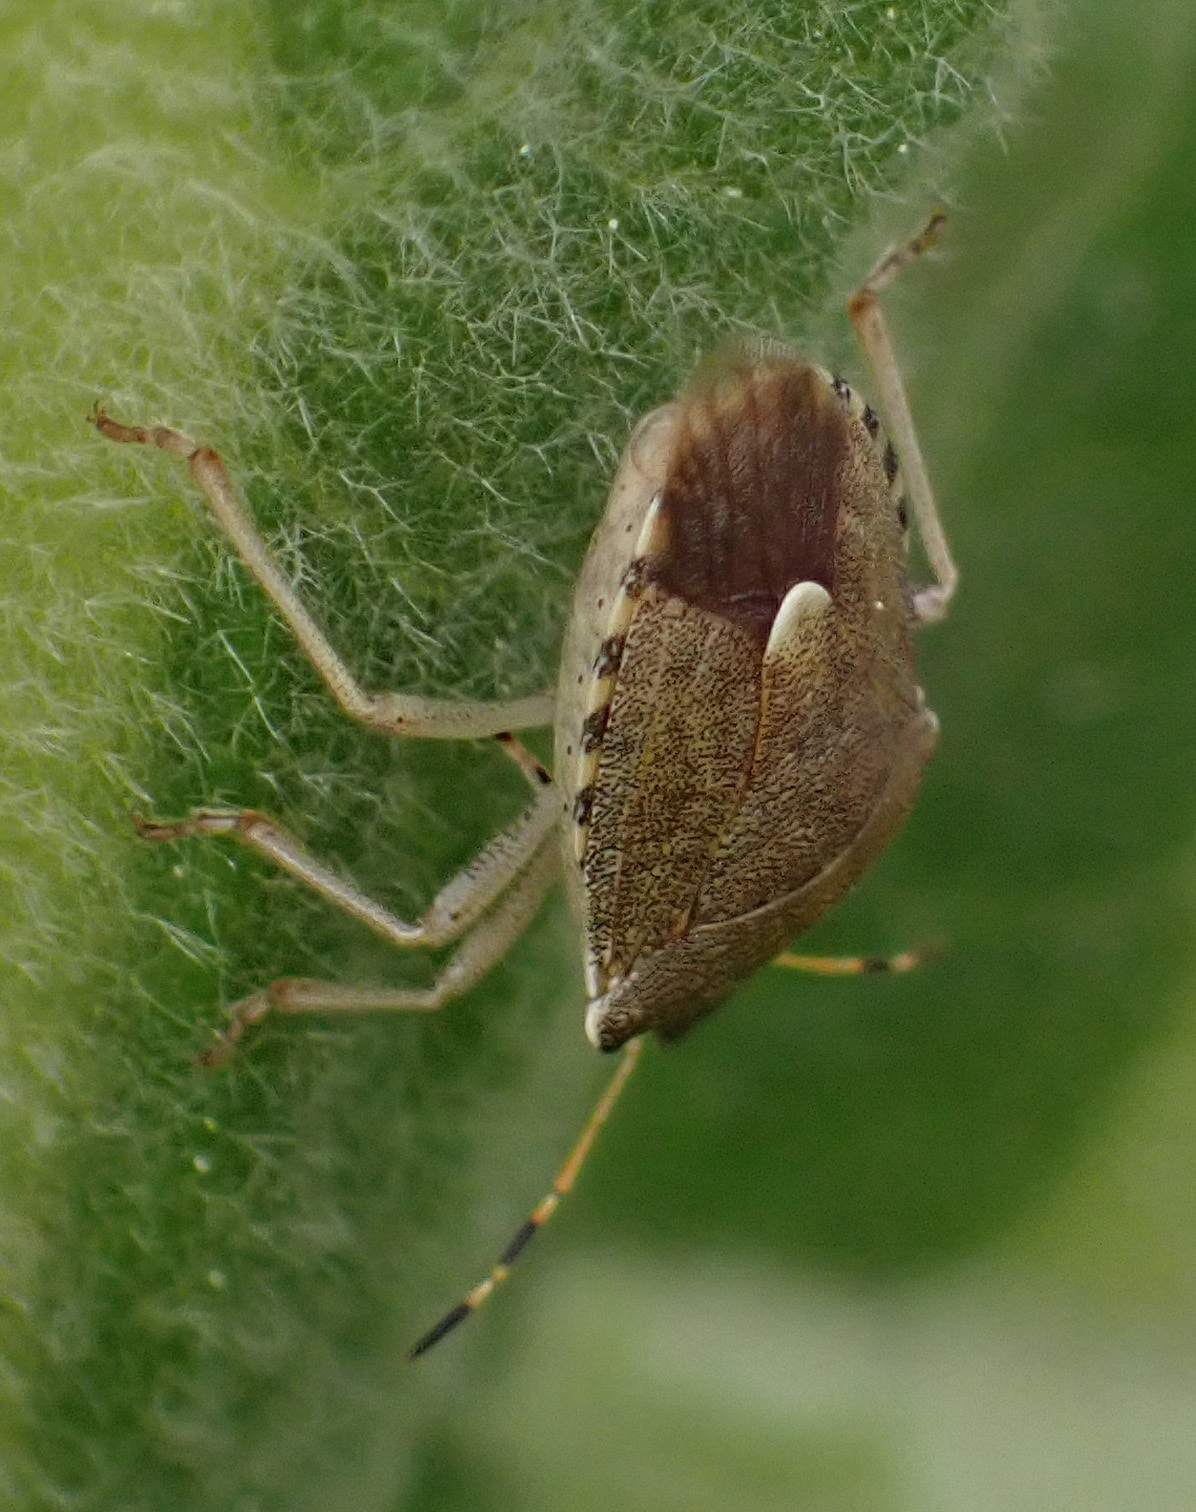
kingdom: Animalia
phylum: Arthropoda
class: Insecta
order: Hemiptera
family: Pentatomidae
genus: Holcostethus
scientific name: Holcostethus strictus
